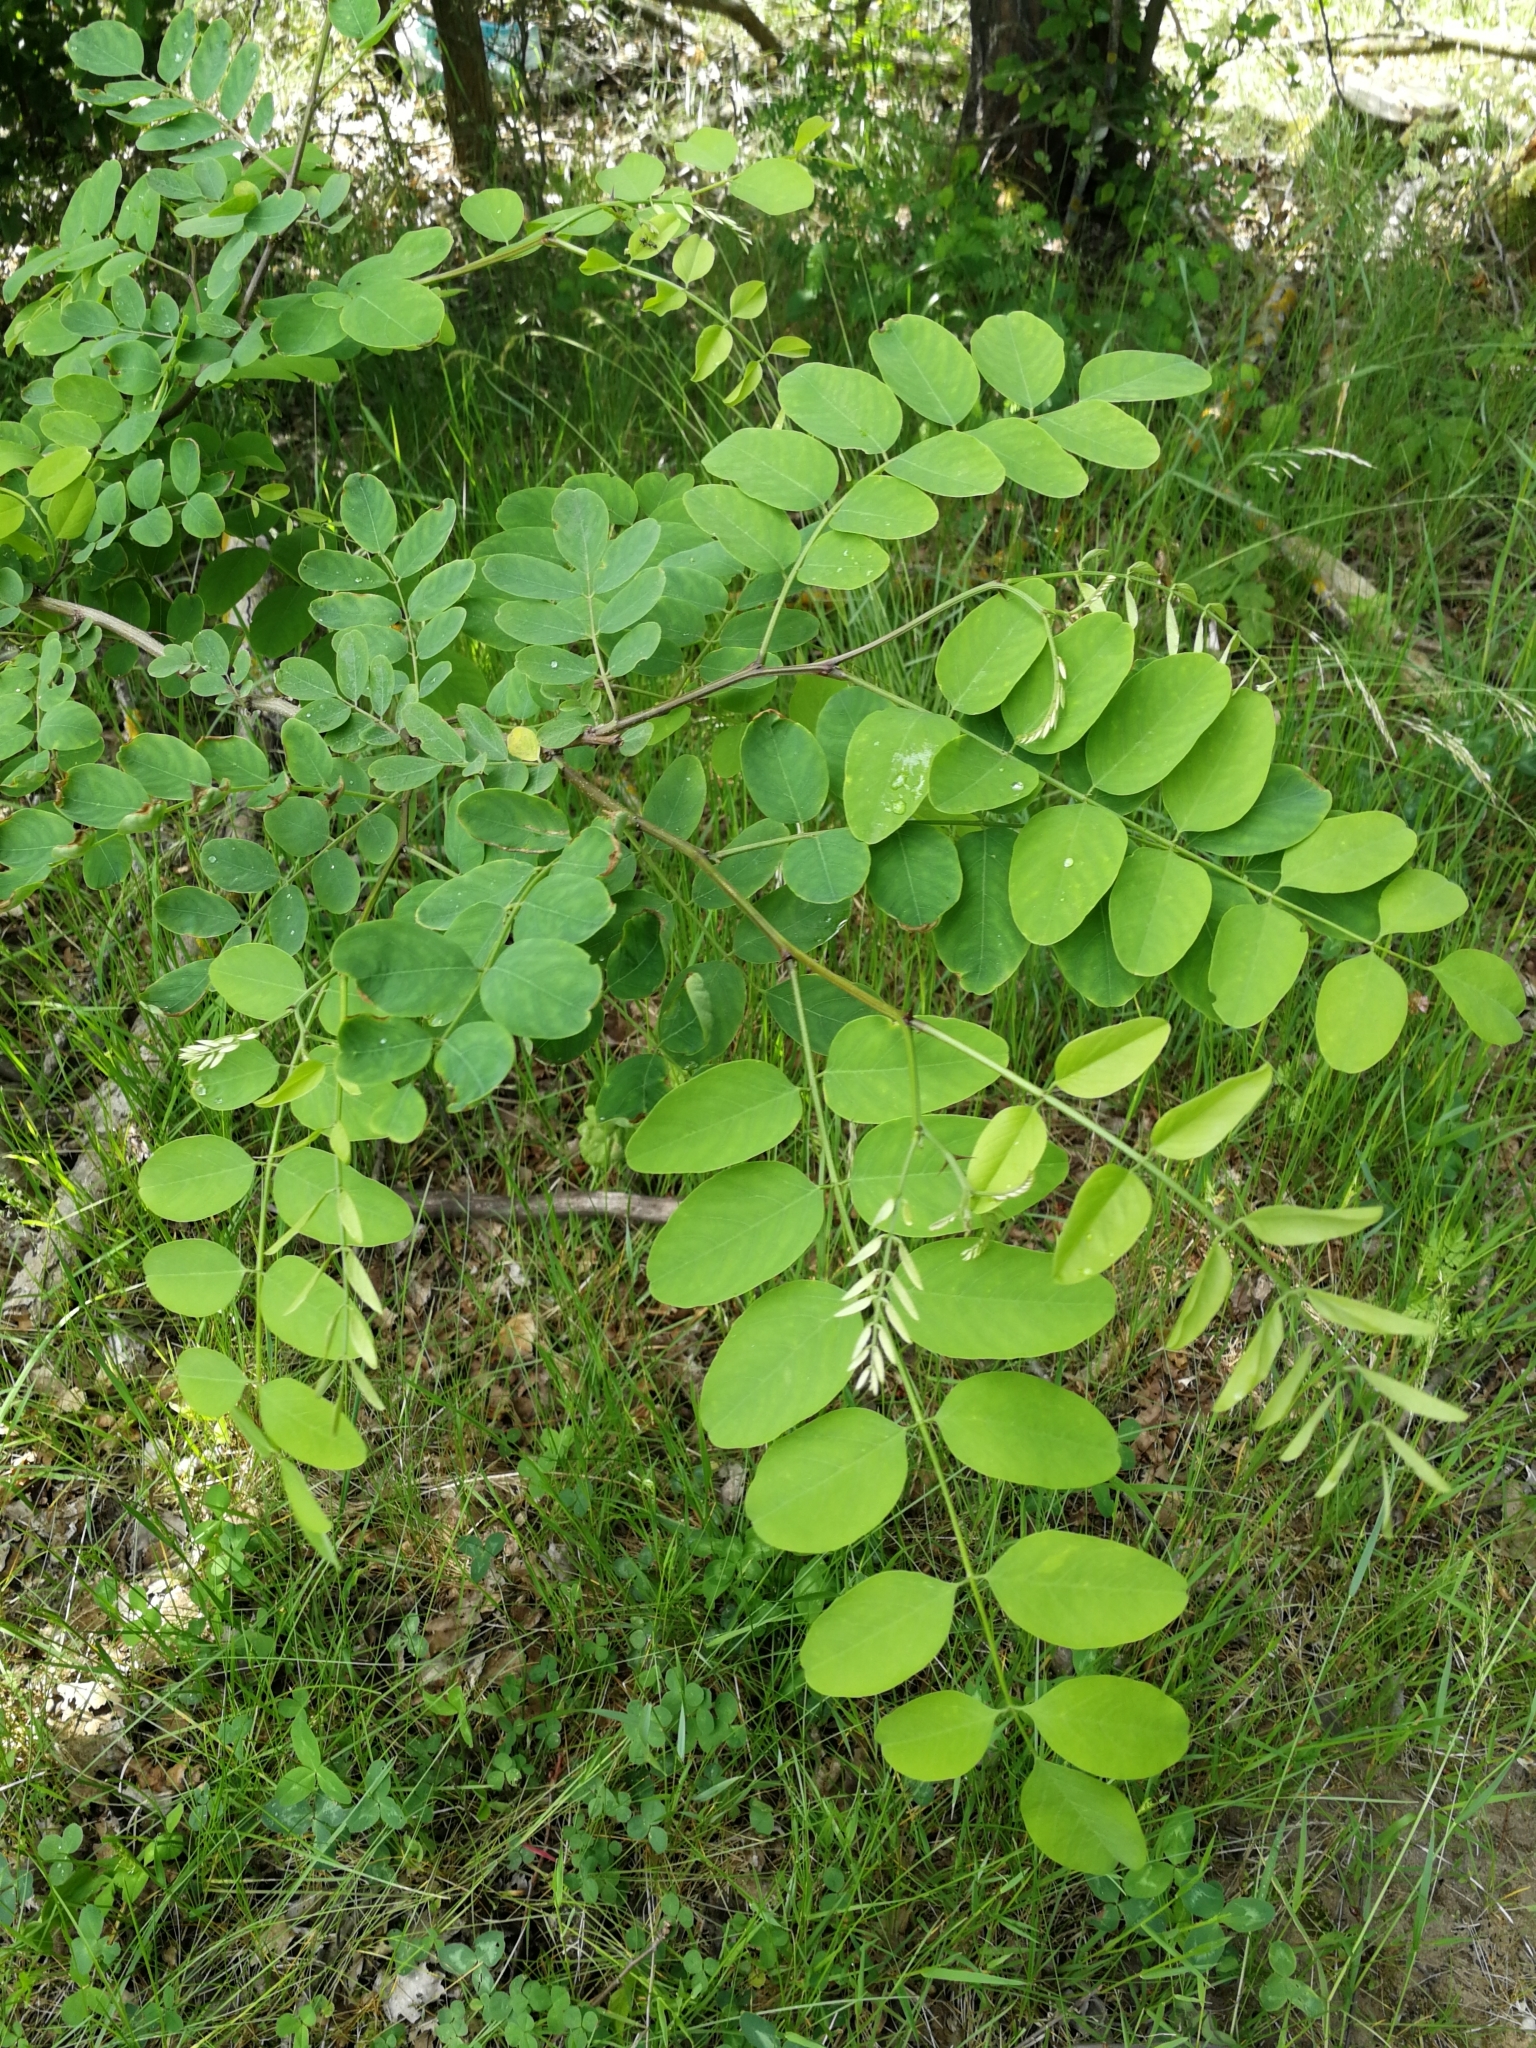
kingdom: Plantae
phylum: Tracheophyta
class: Magnoliopsida
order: Fabales
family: Fabaceae
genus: Robinia
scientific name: Robinia pseudoacacia
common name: Black locust
